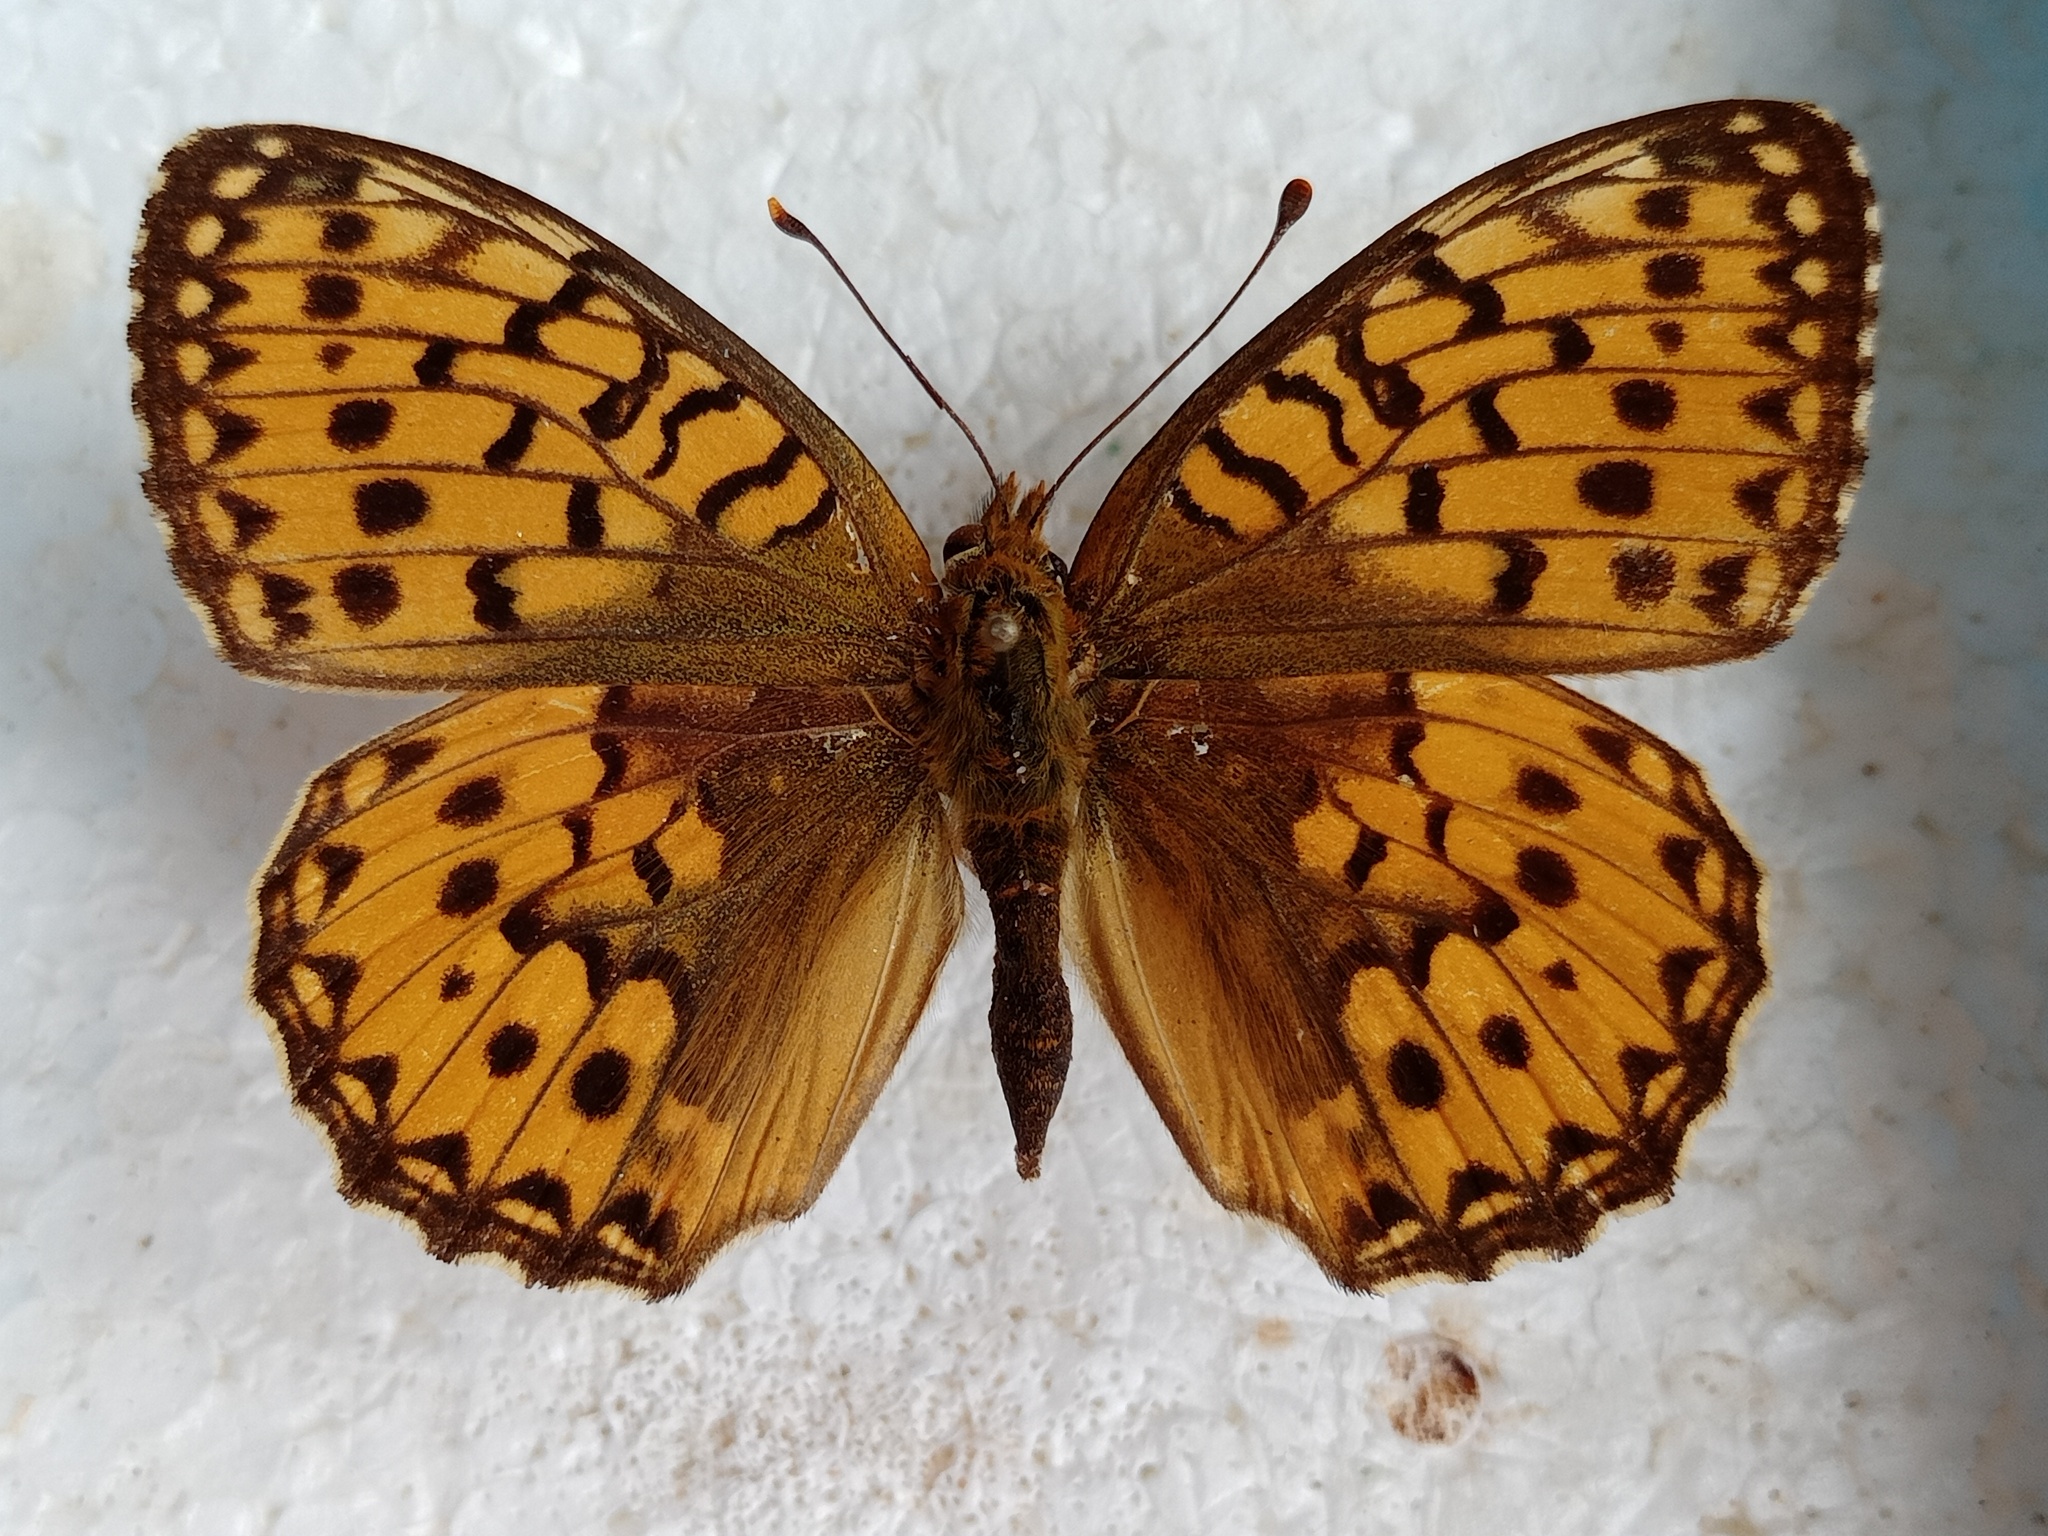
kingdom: Animalia
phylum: Arthropoda
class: Insecta
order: Lepidoptera
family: Nymphalidae
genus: Speyeria
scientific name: Speyeria aglaja
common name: Dark green fritillary
